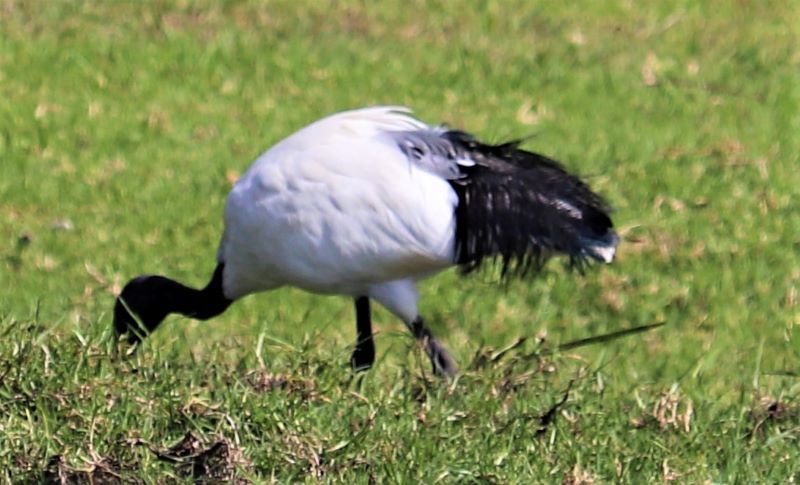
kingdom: Animalia
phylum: Chordata
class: Aves
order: Pelecaniformes
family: Threskiornithidae
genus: Threskiornis
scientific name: Threskiornis aethiopicus
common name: Sacred ibis
